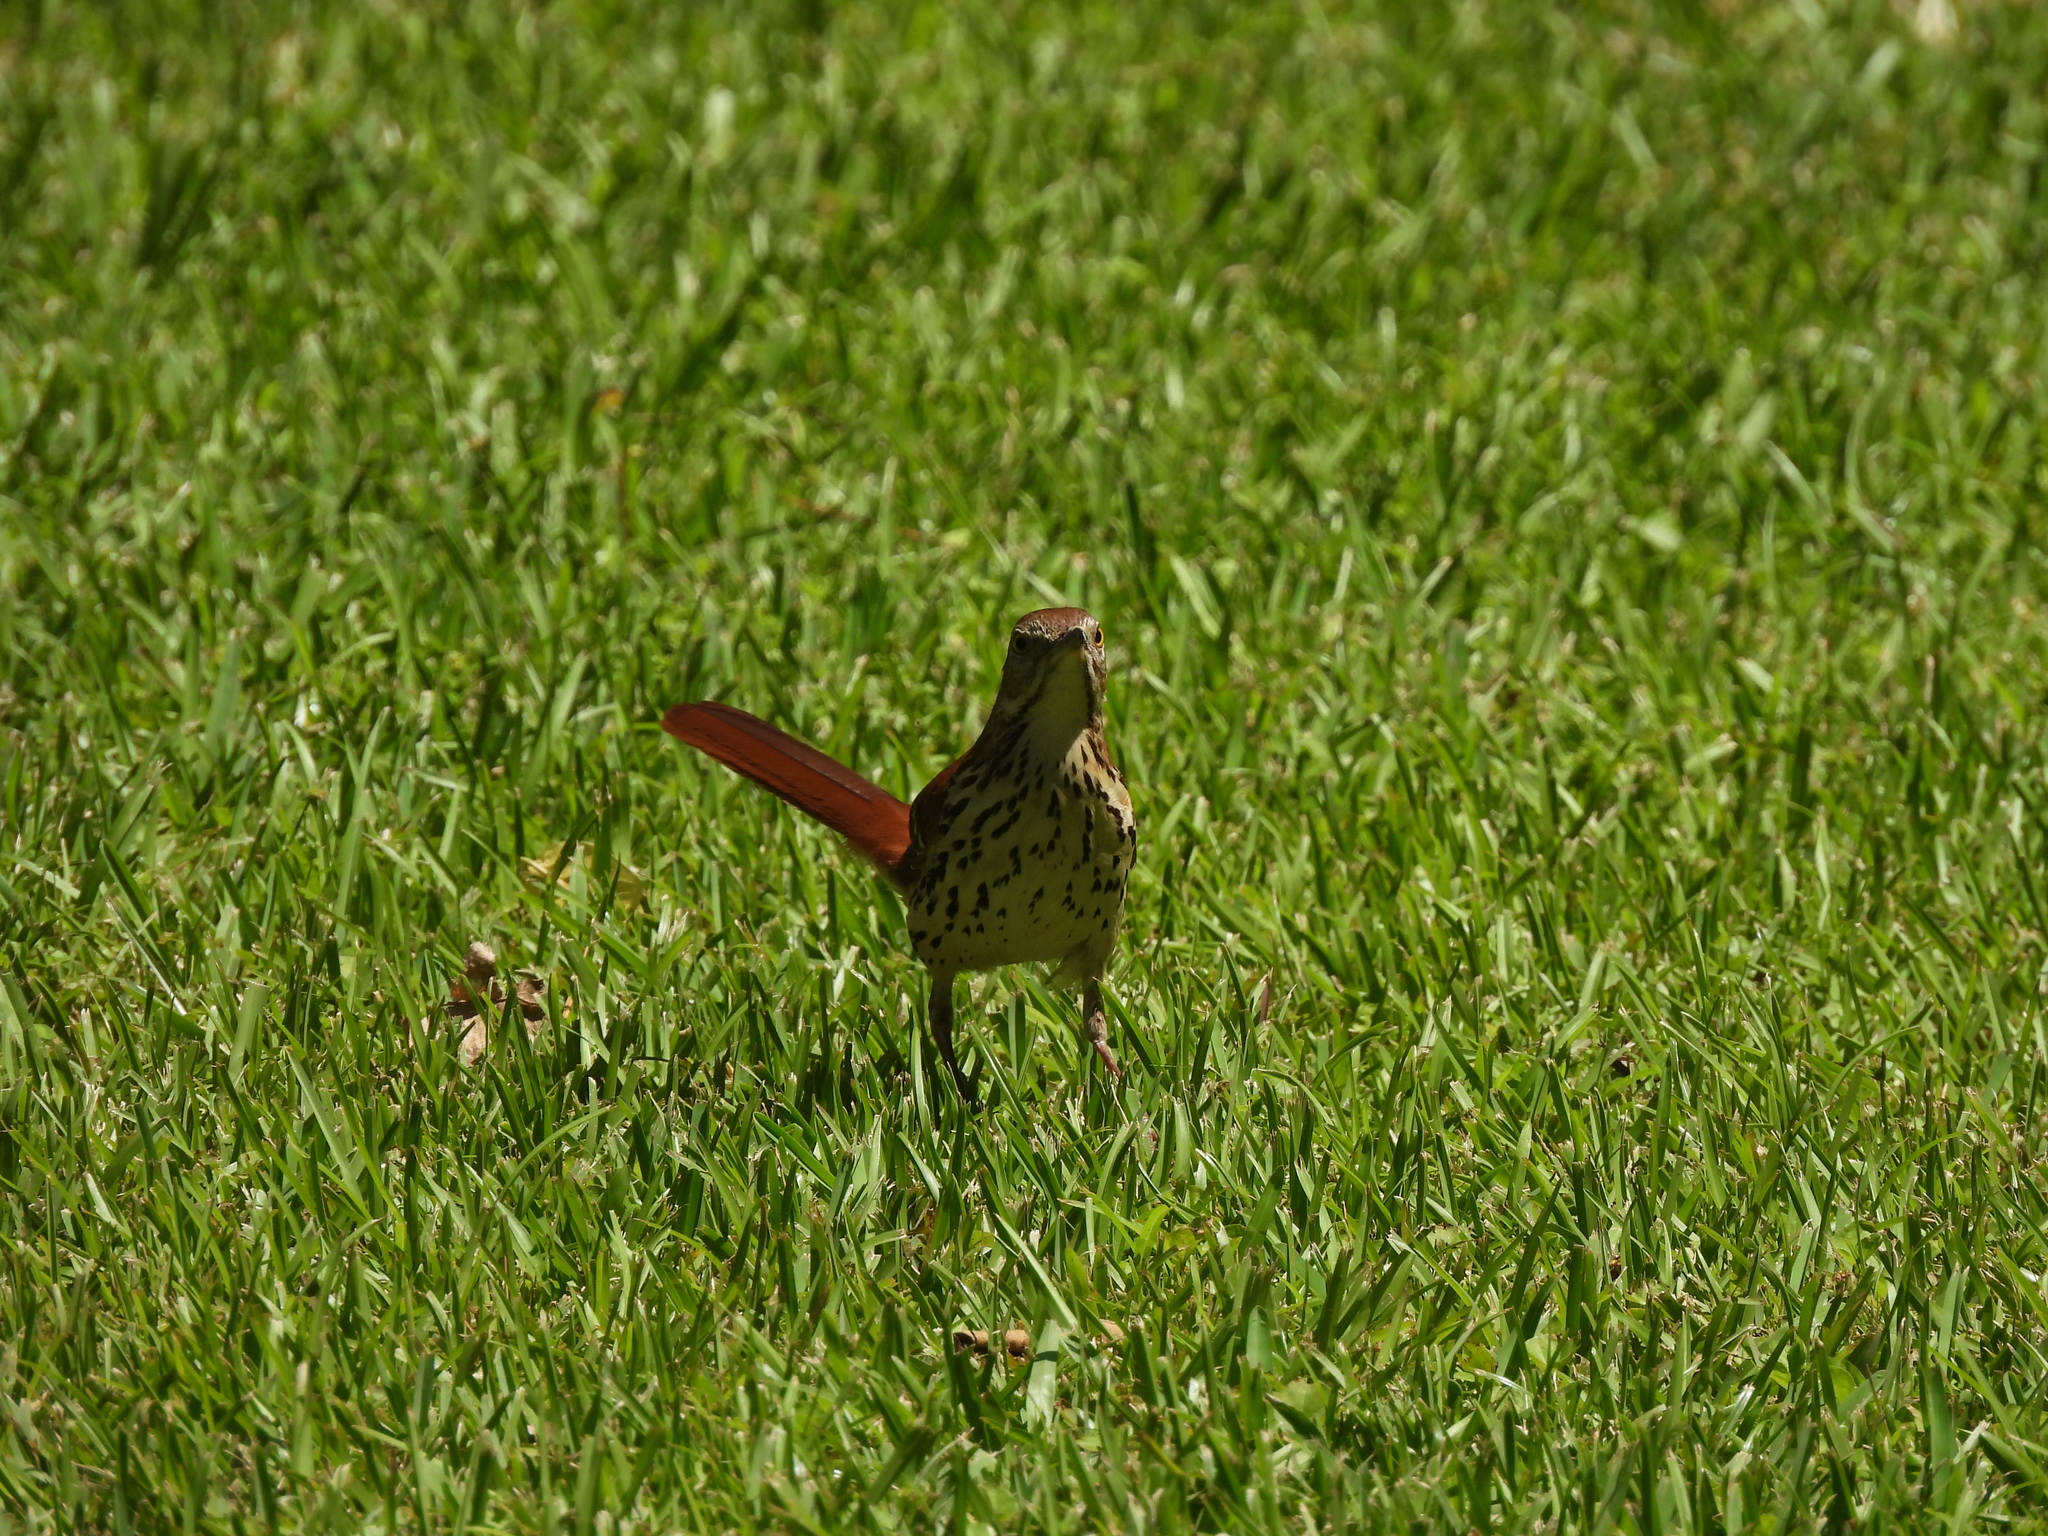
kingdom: Animalia
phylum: Chordata
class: Aves
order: Passeriformes
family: Mimidae
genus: Toxostoma
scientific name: Toxostoma rufum
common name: Brown thrasher
